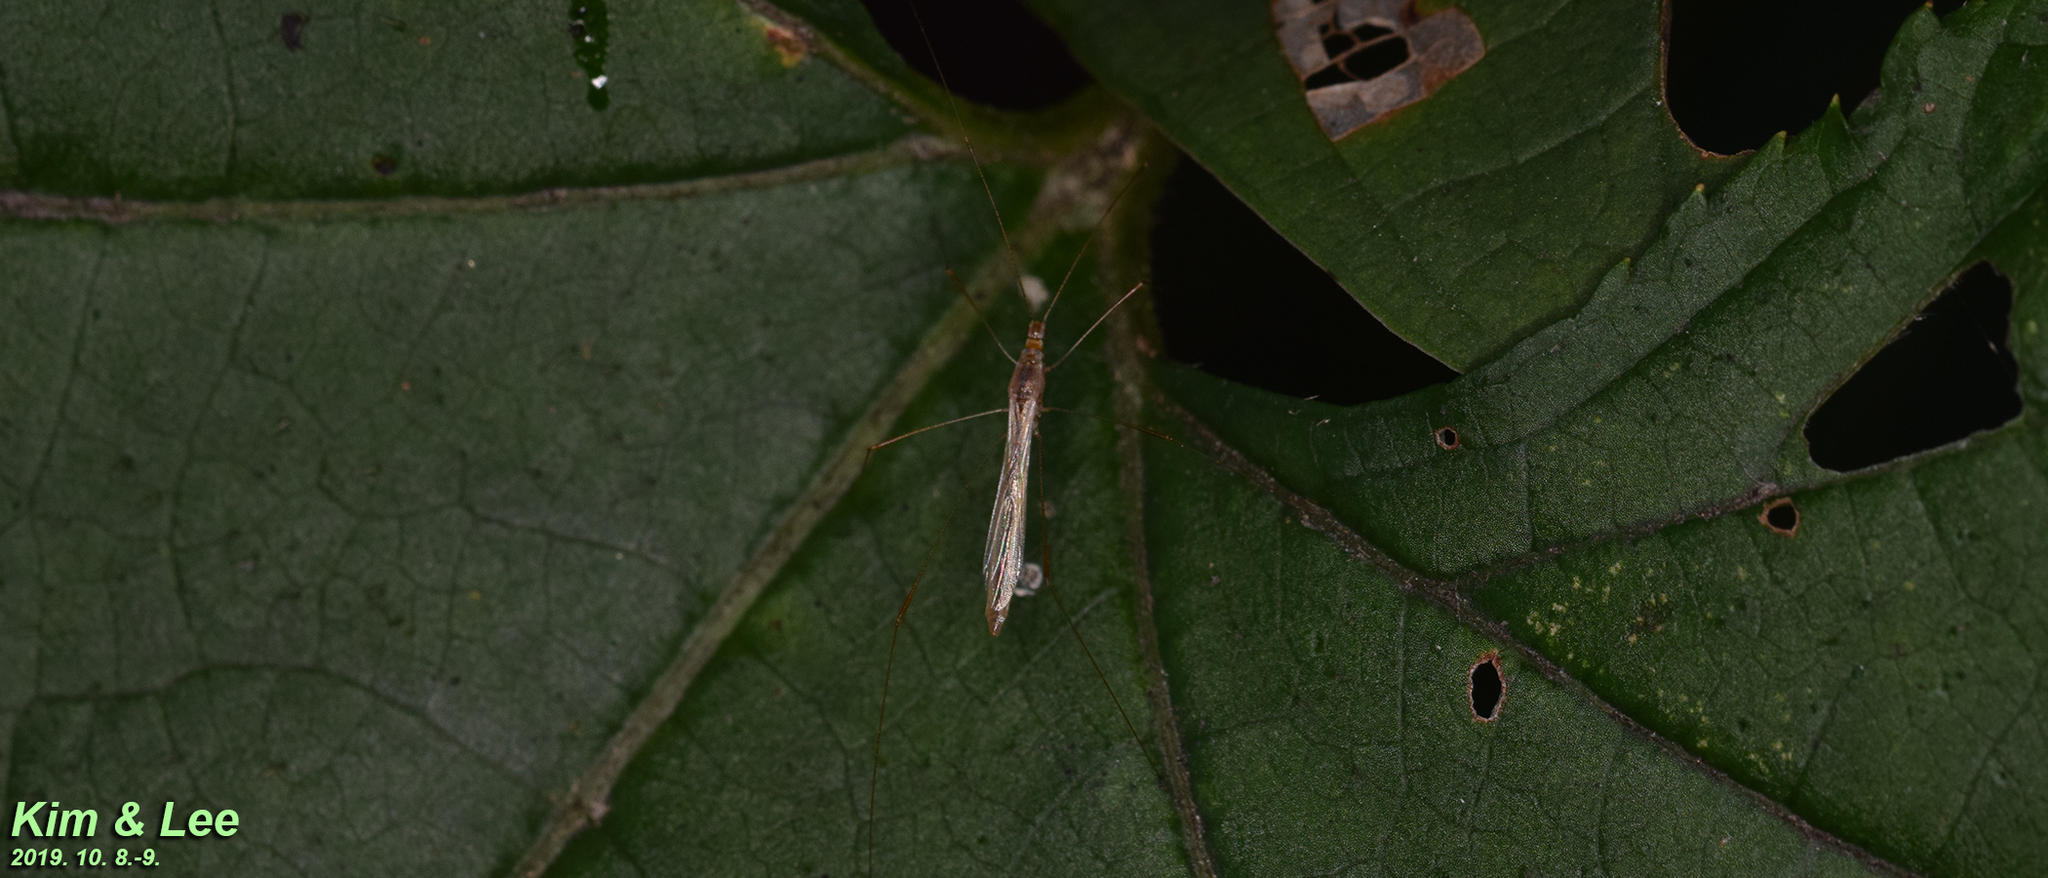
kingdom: Animalia
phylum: Arthropoda
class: Insecta
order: Hemiptera
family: Berytidae
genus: Yemma
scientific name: Yemma exilis
